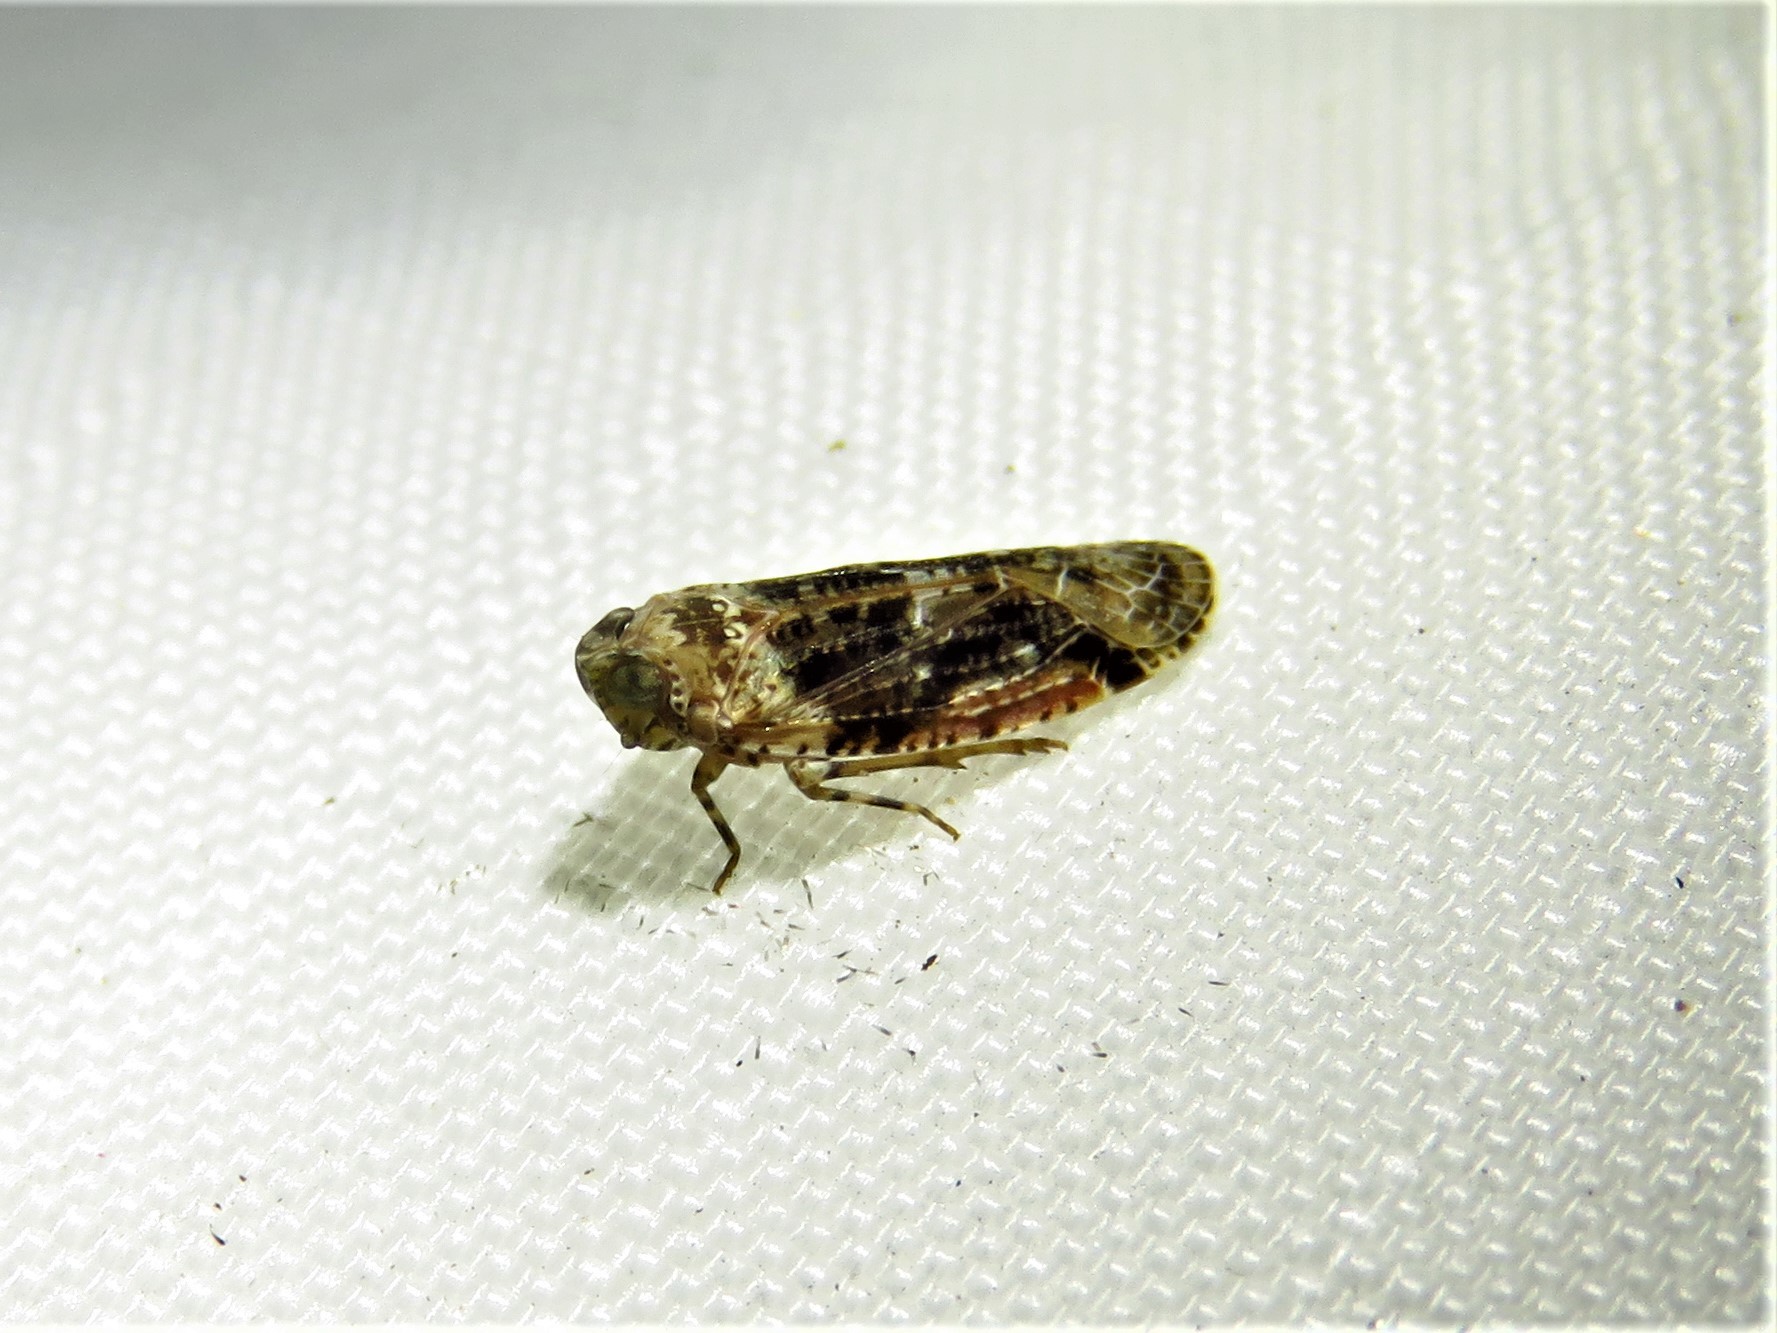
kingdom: Animalia
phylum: Arthropoda
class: Insecta
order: Hemiptera
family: Achilidae
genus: Catonia
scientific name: Catonia nava
